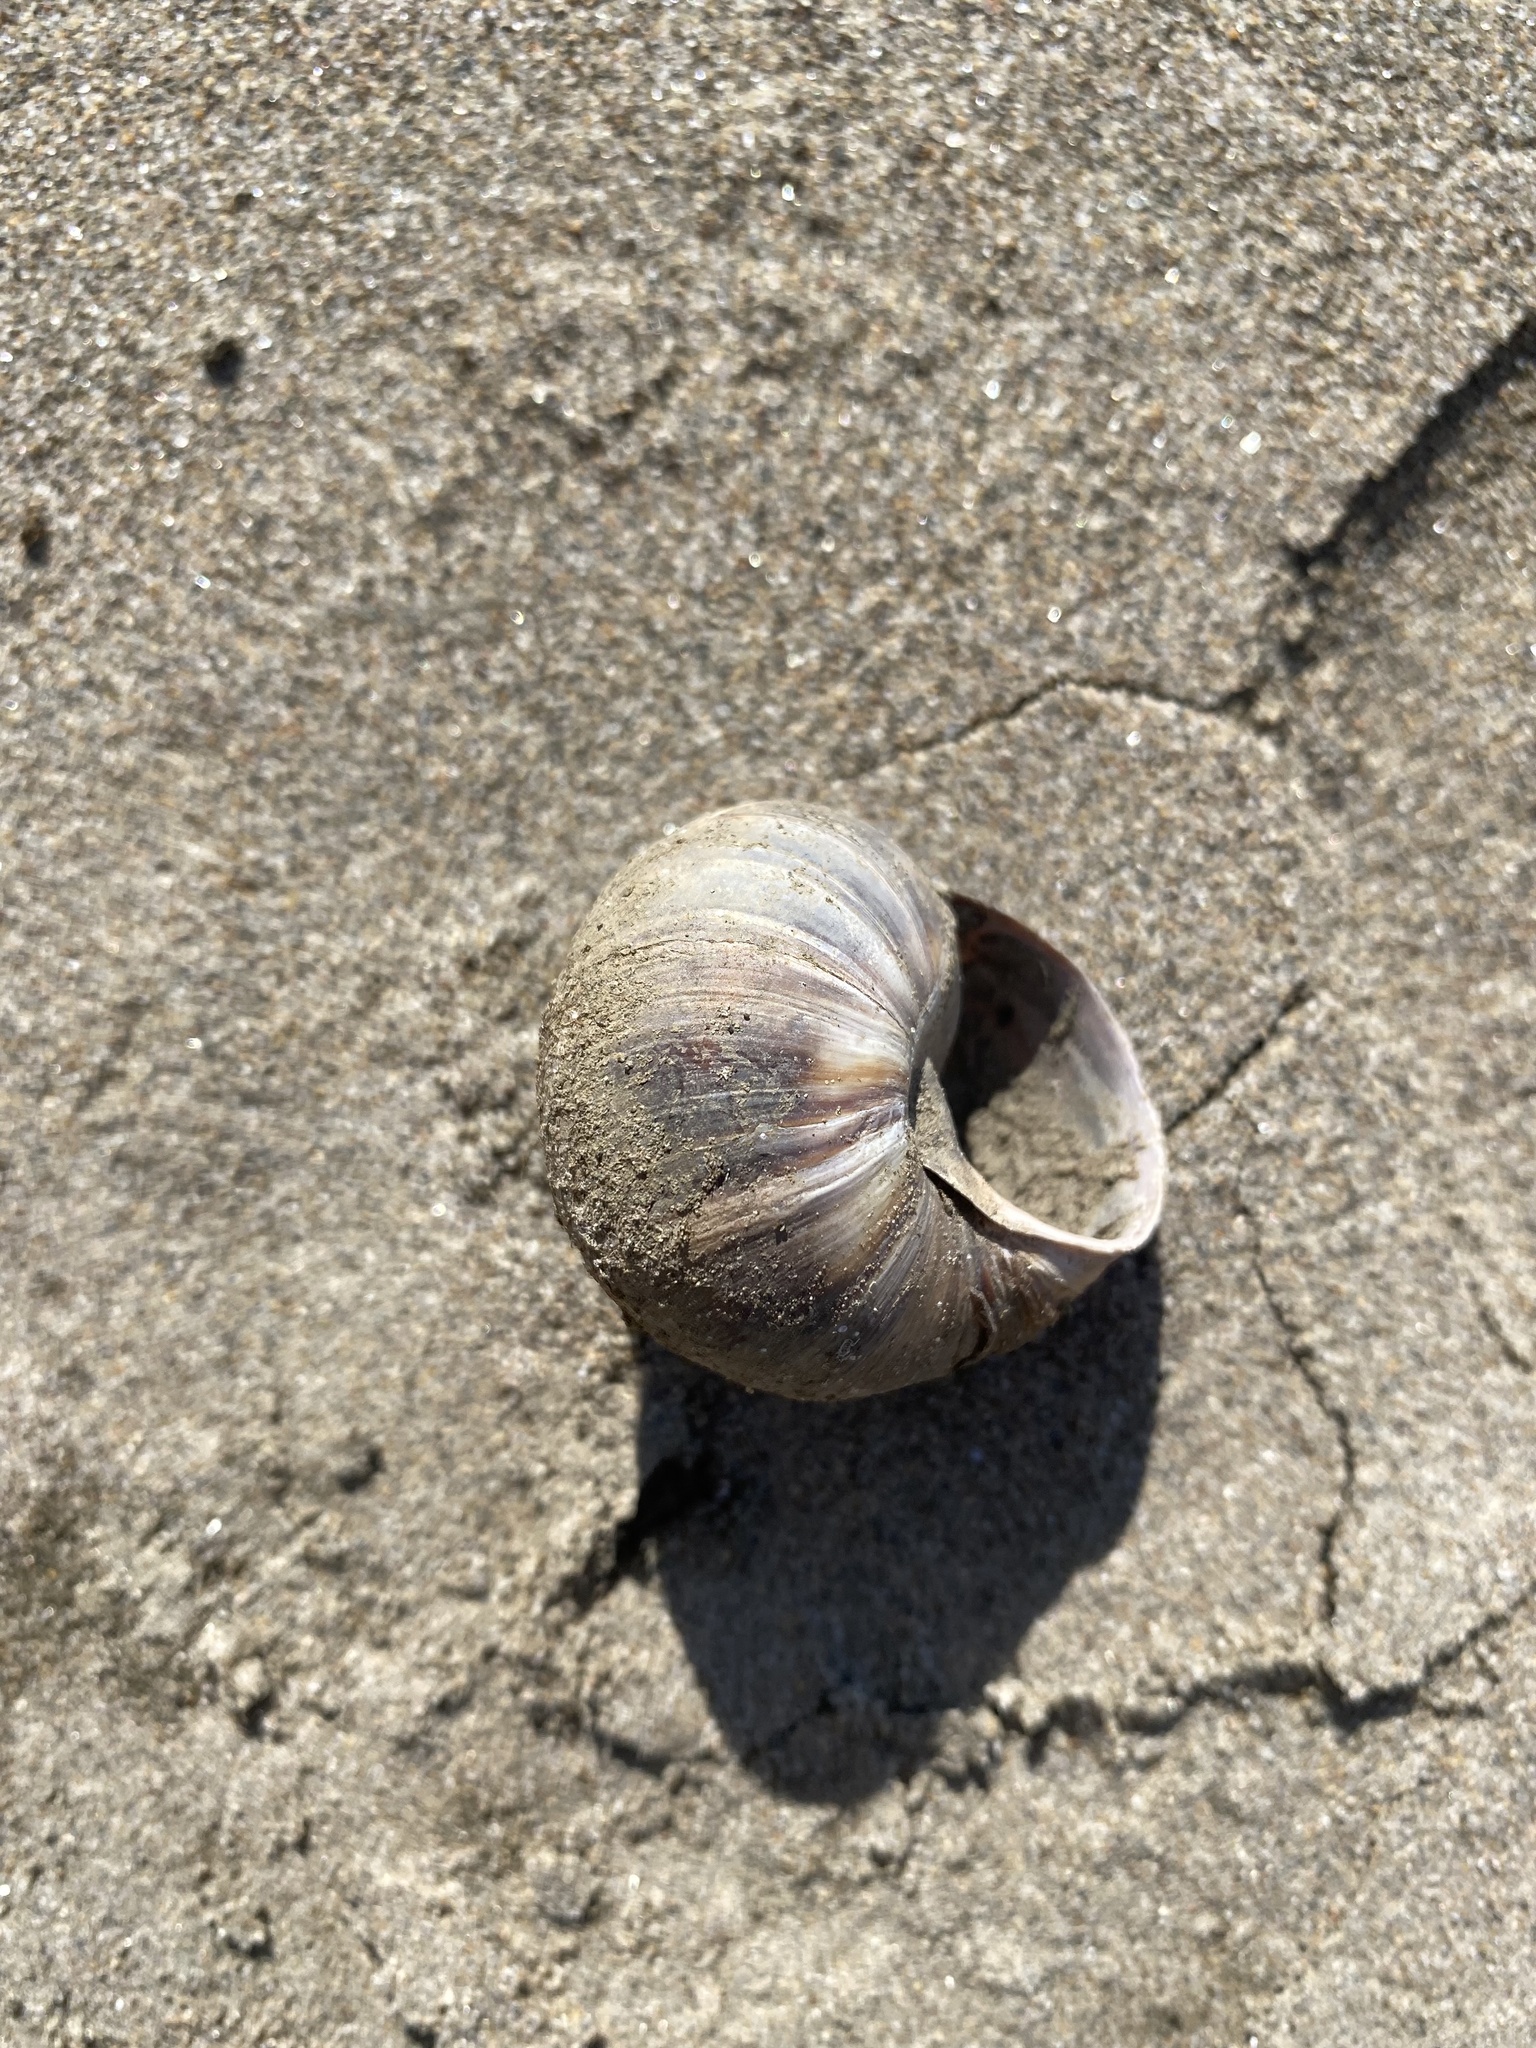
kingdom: Animalia
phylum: Mollusca
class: Gastropoda
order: Stylommatophora
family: Helicidae
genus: Helix
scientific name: Helix lucorum
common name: Turkish snail
